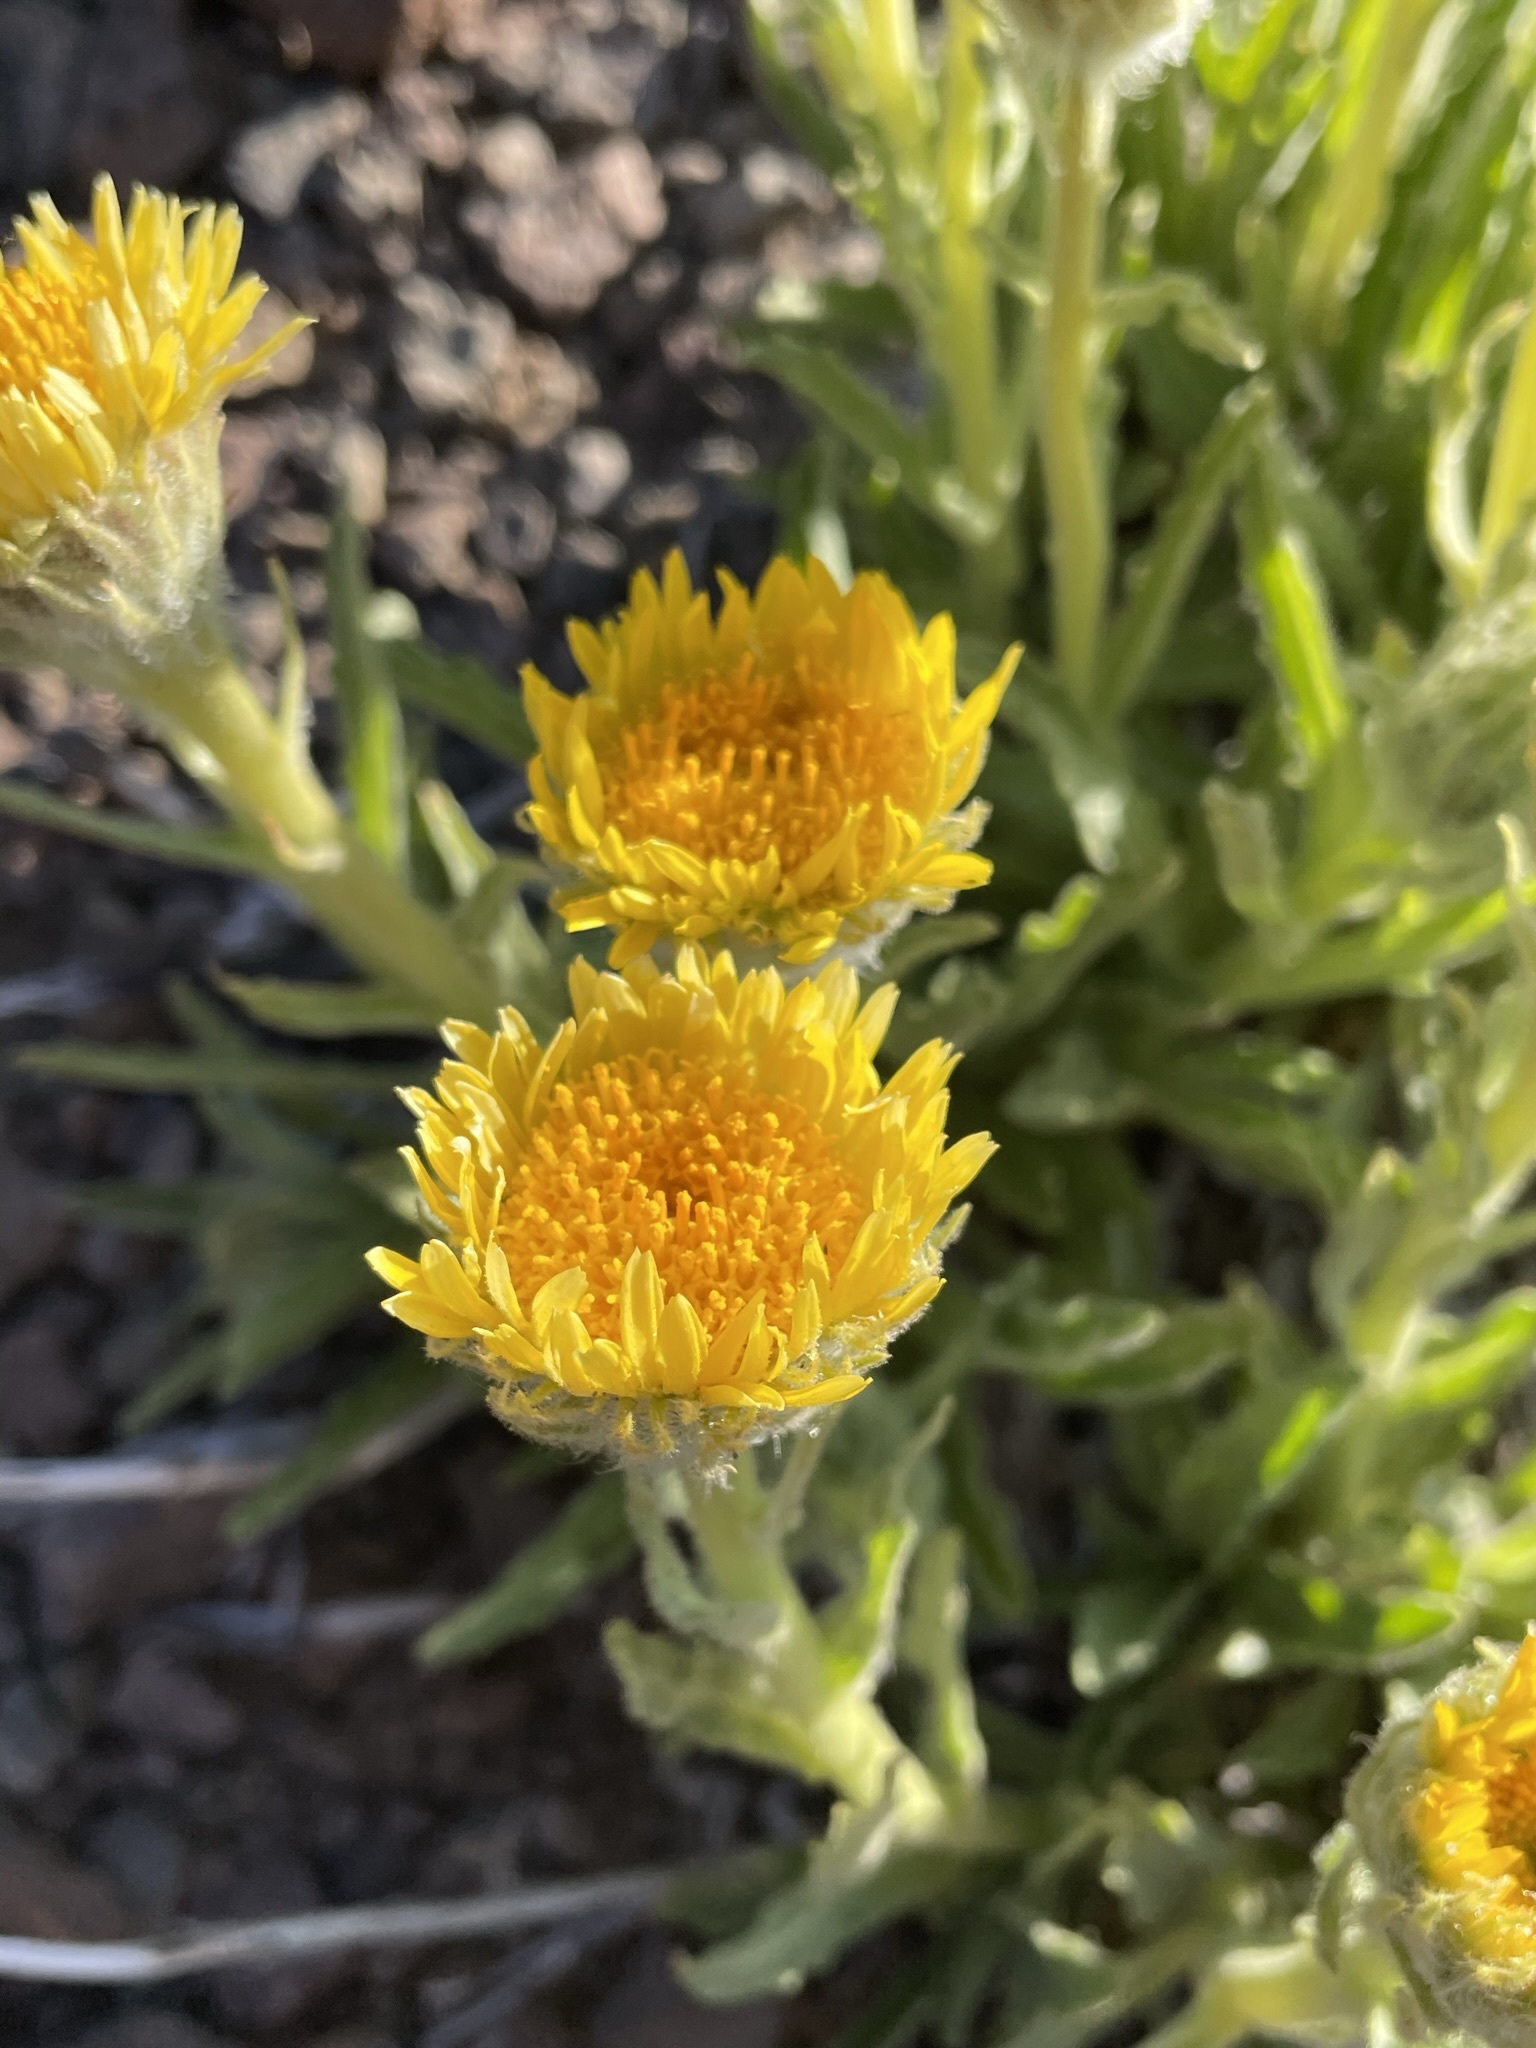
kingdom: Plantae
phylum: Tracheophyta
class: Magnoliopsida
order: Asterales
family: Asteraceae
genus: Hulsea
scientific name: Hulsea algida
